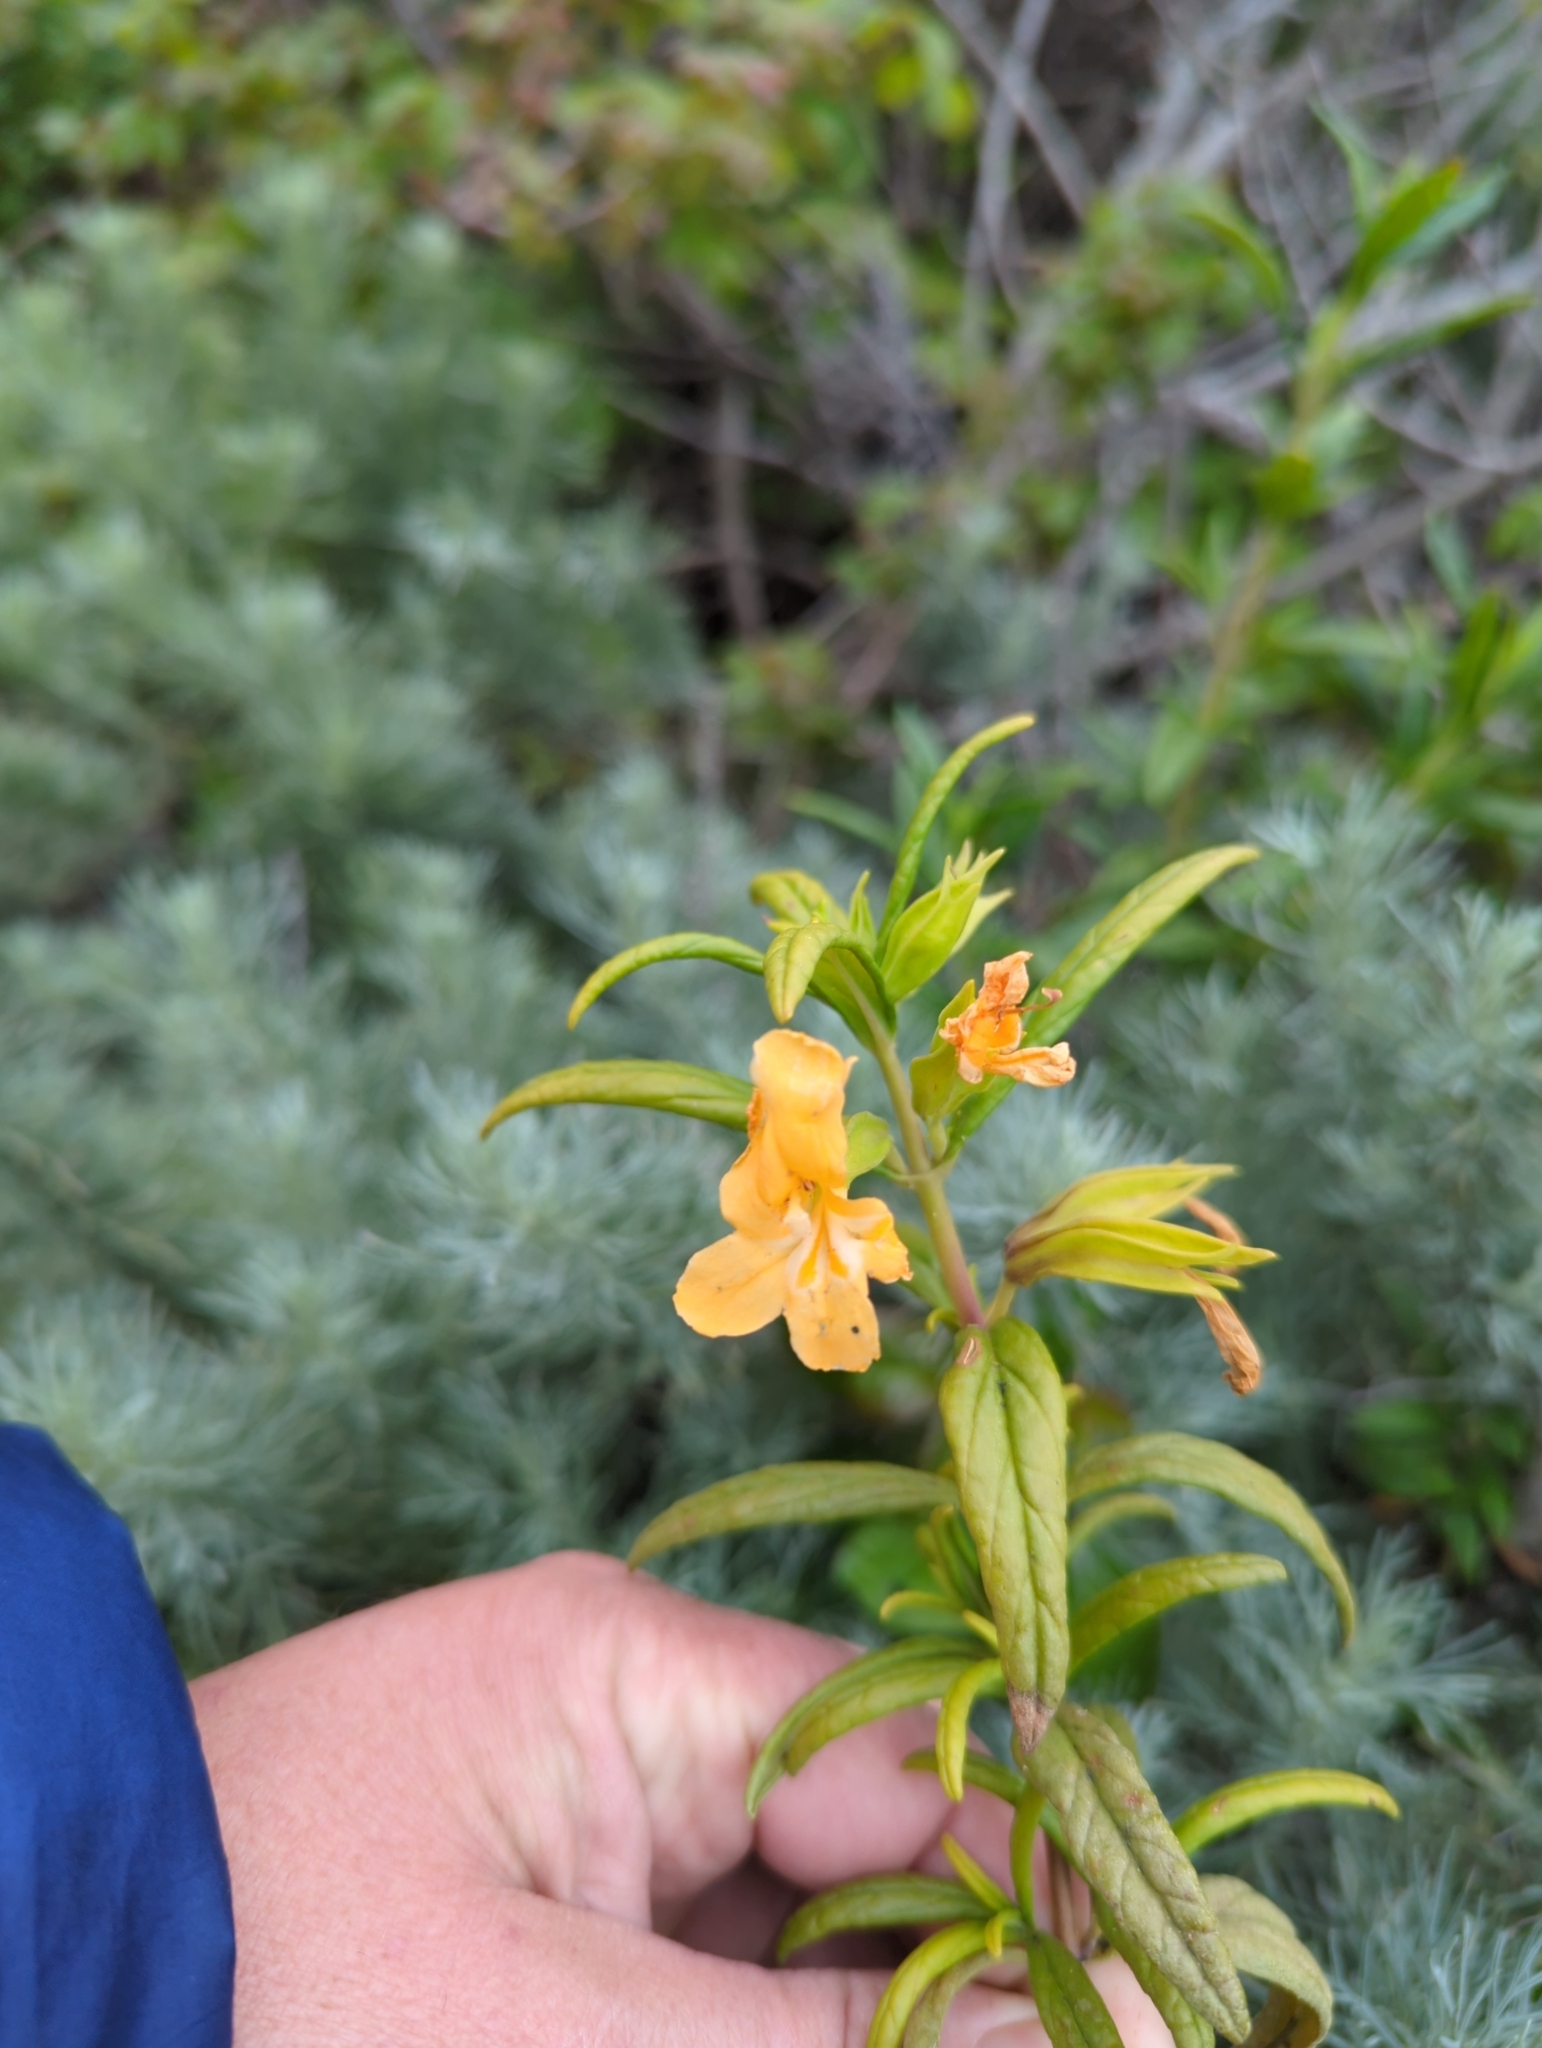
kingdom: Plantae
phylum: Tracheophyta
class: Magnoliopsida
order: Lamiales
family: Phrymaceae
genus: Diplacus
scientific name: Diplacus aurantiacus
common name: Bush monkey-flower
